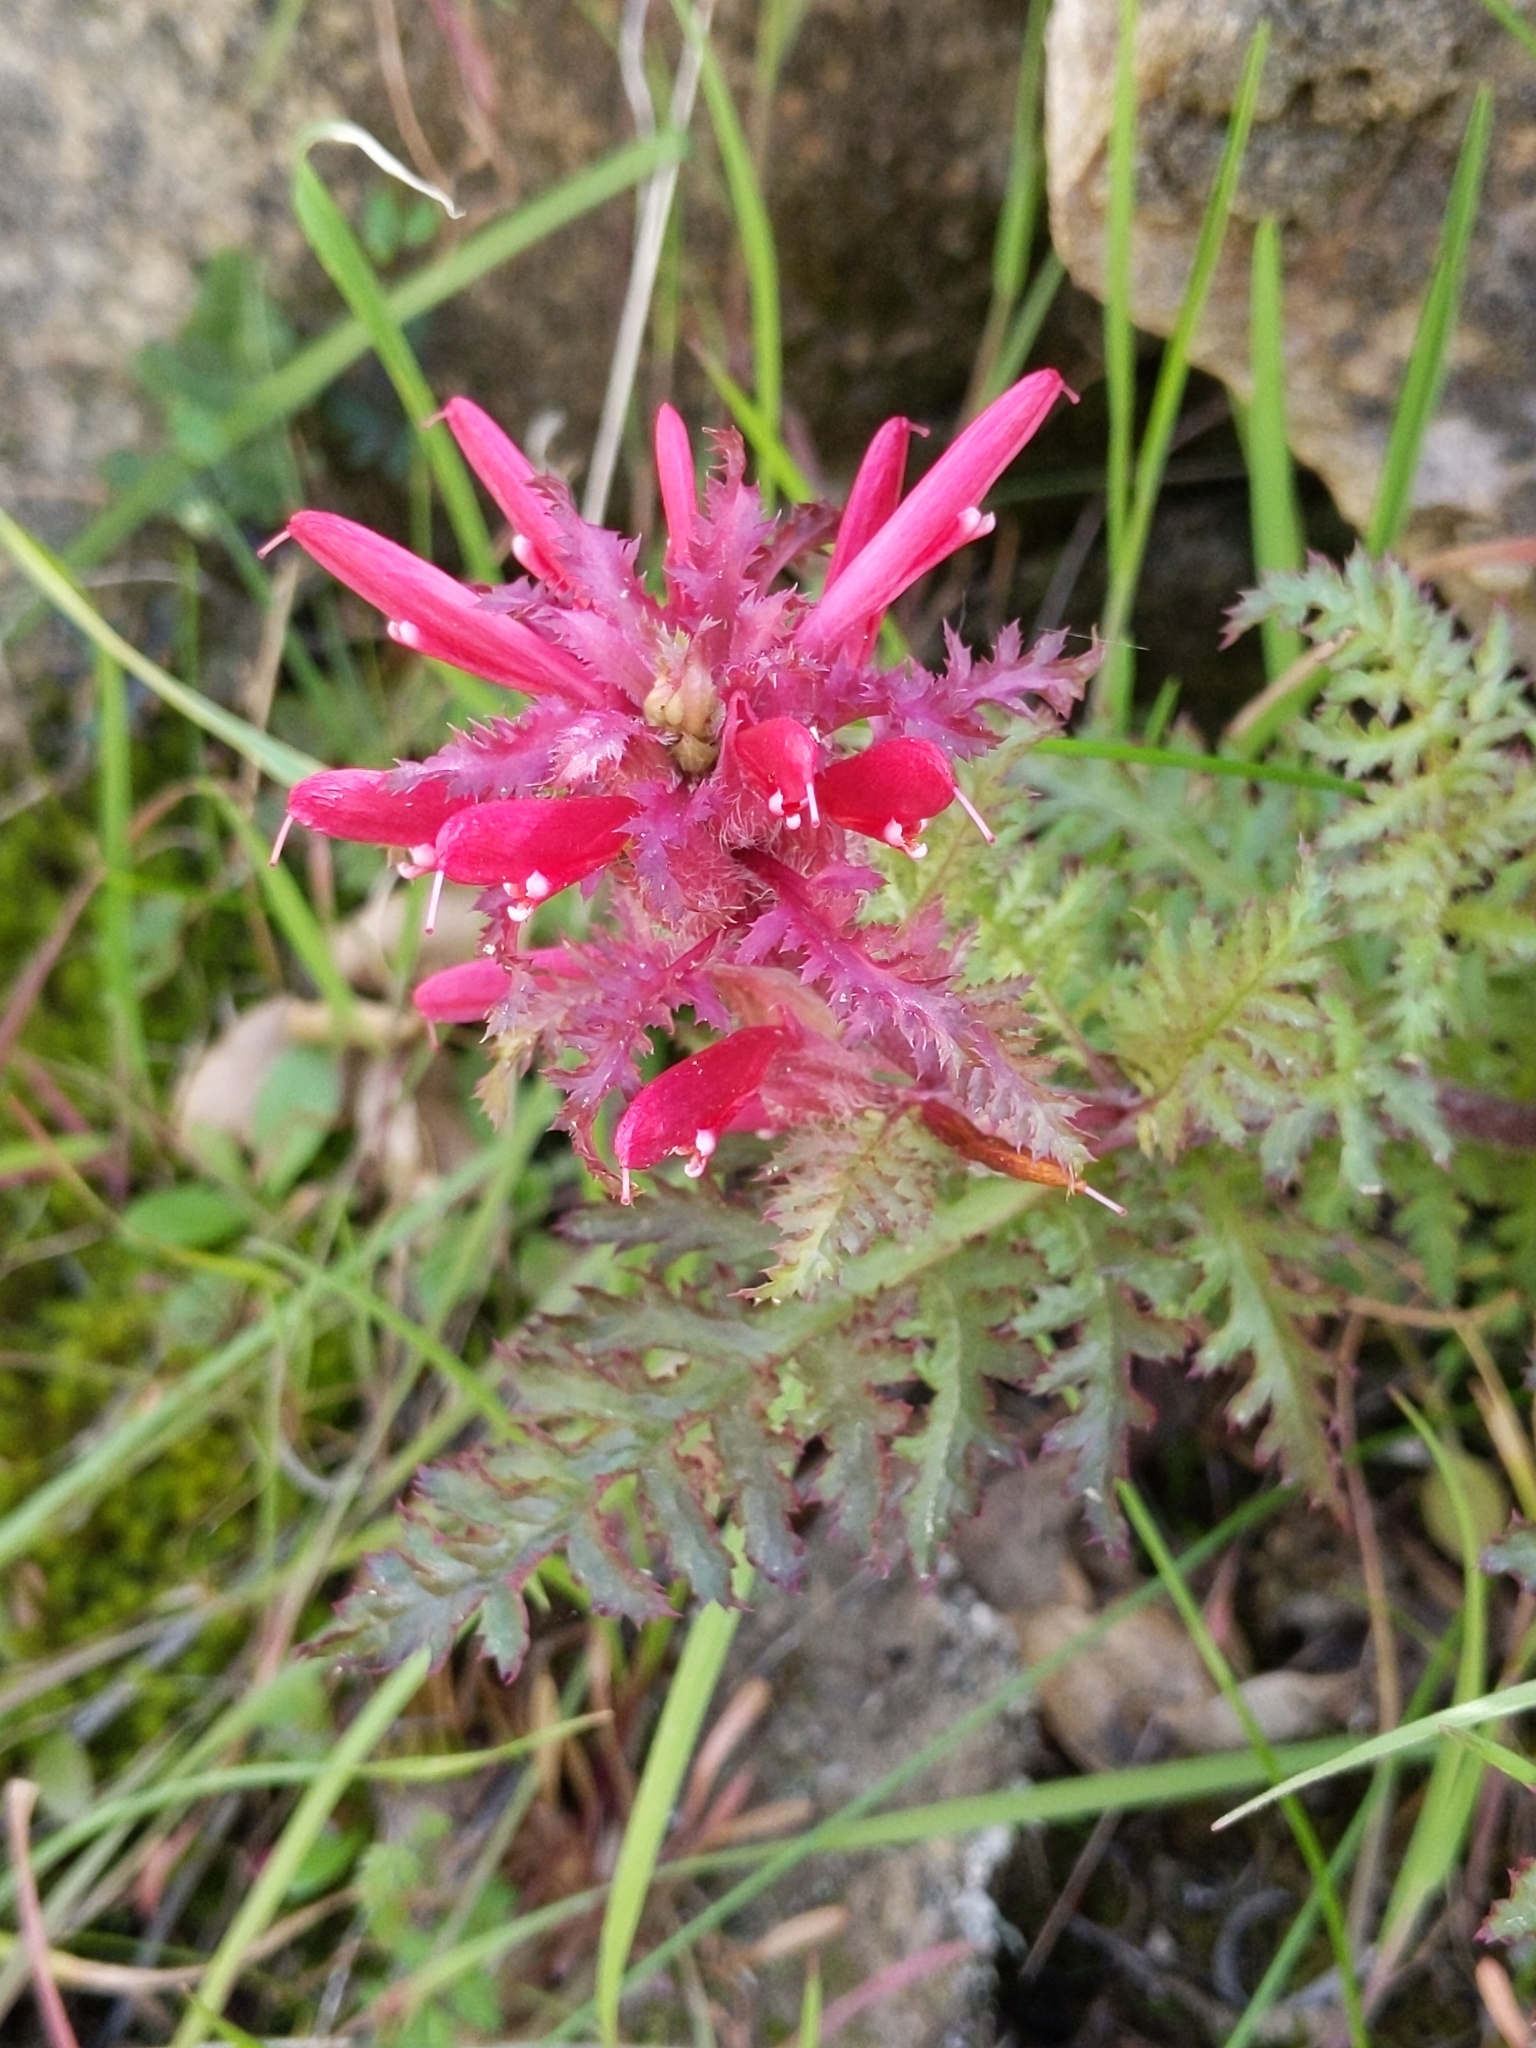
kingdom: Plantae
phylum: Tracheophyta
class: Magnoliopsida
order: Lamiales
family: Orobanchaceae
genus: Pedicularis
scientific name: Pedicularis densiflora
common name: Indian warrior
